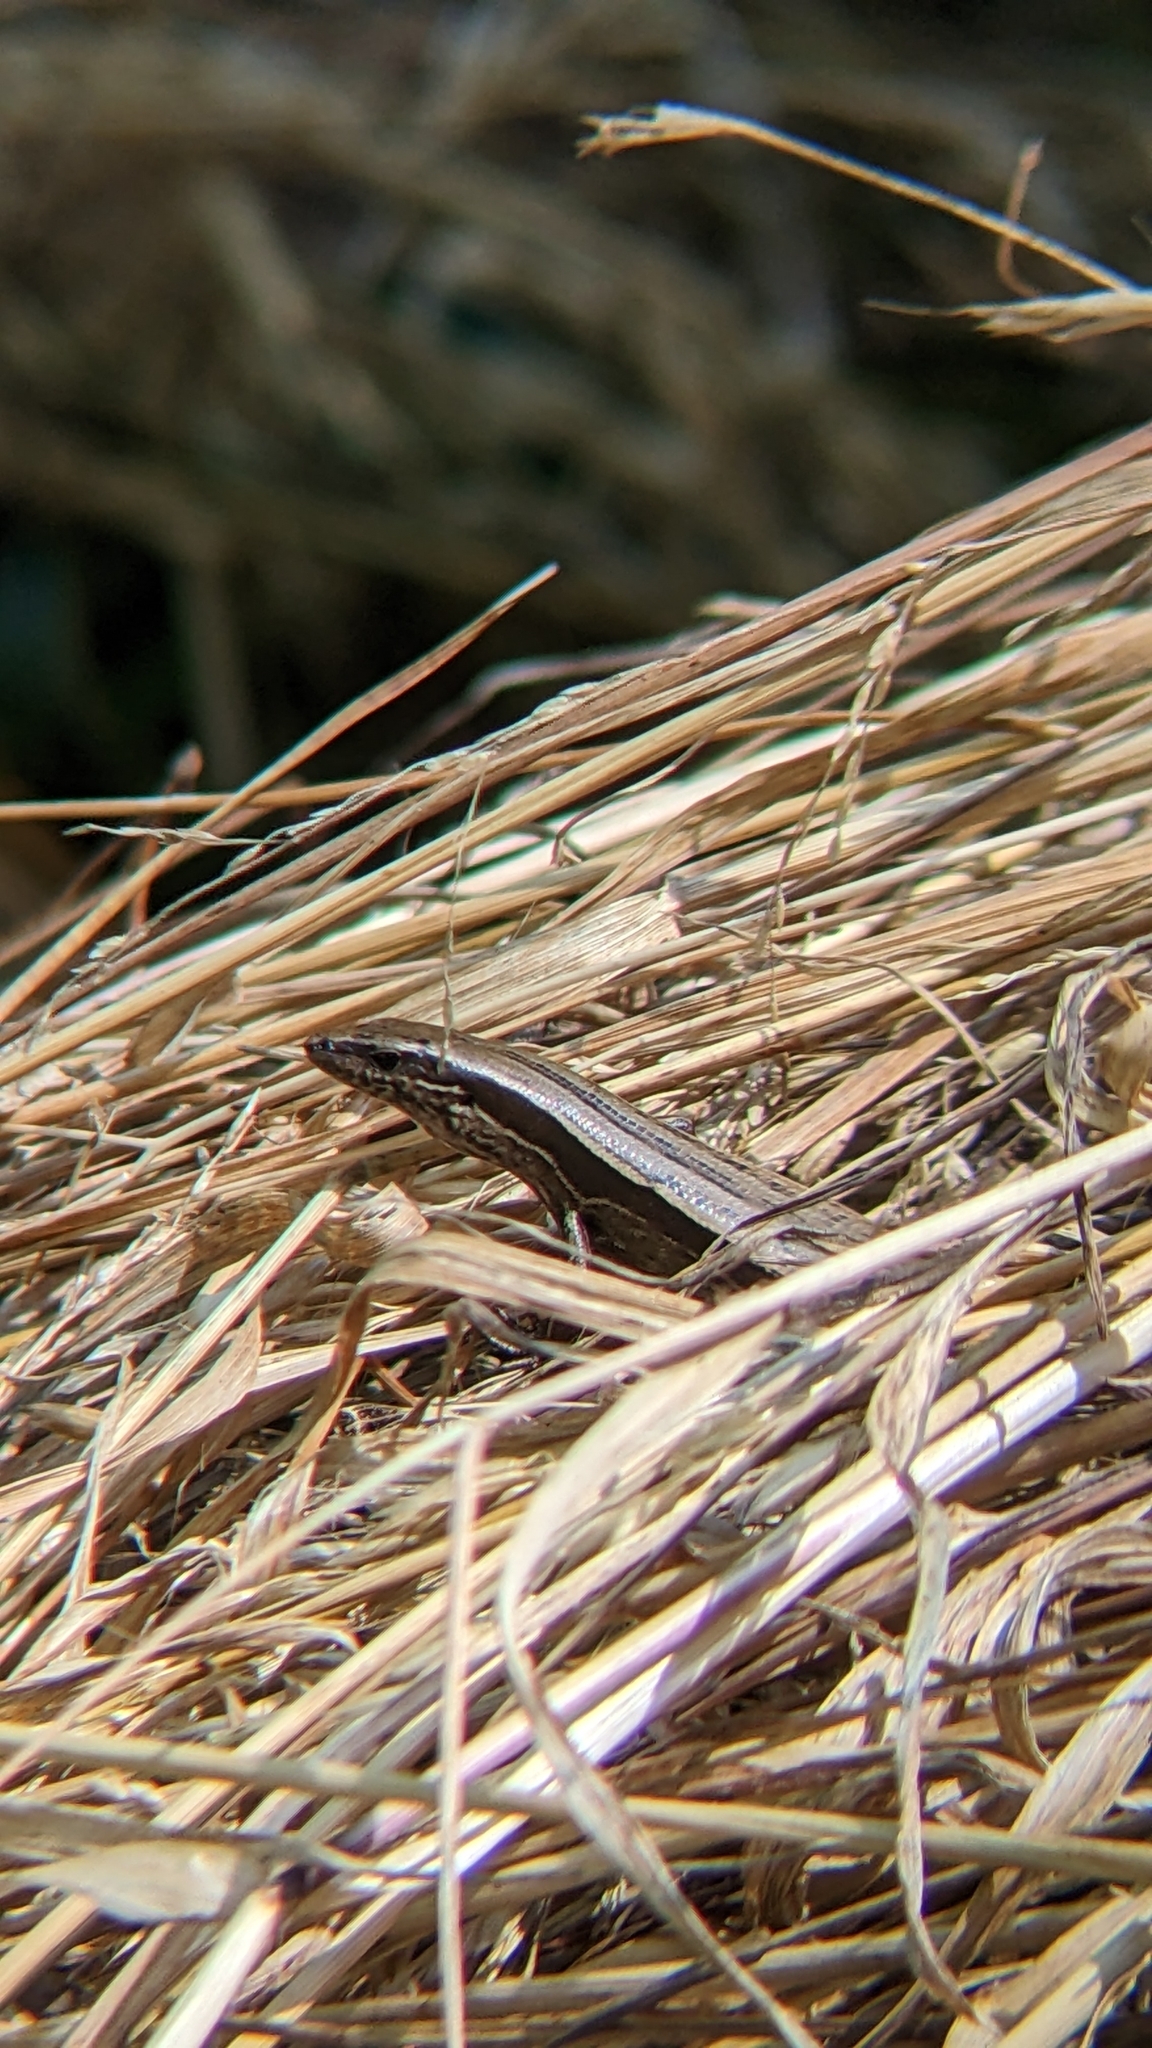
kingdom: Animalia
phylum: Chordata
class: Squamata
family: Scincidae
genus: Oligosoma
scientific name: Oligosoma zelandicum
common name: Brown skink
